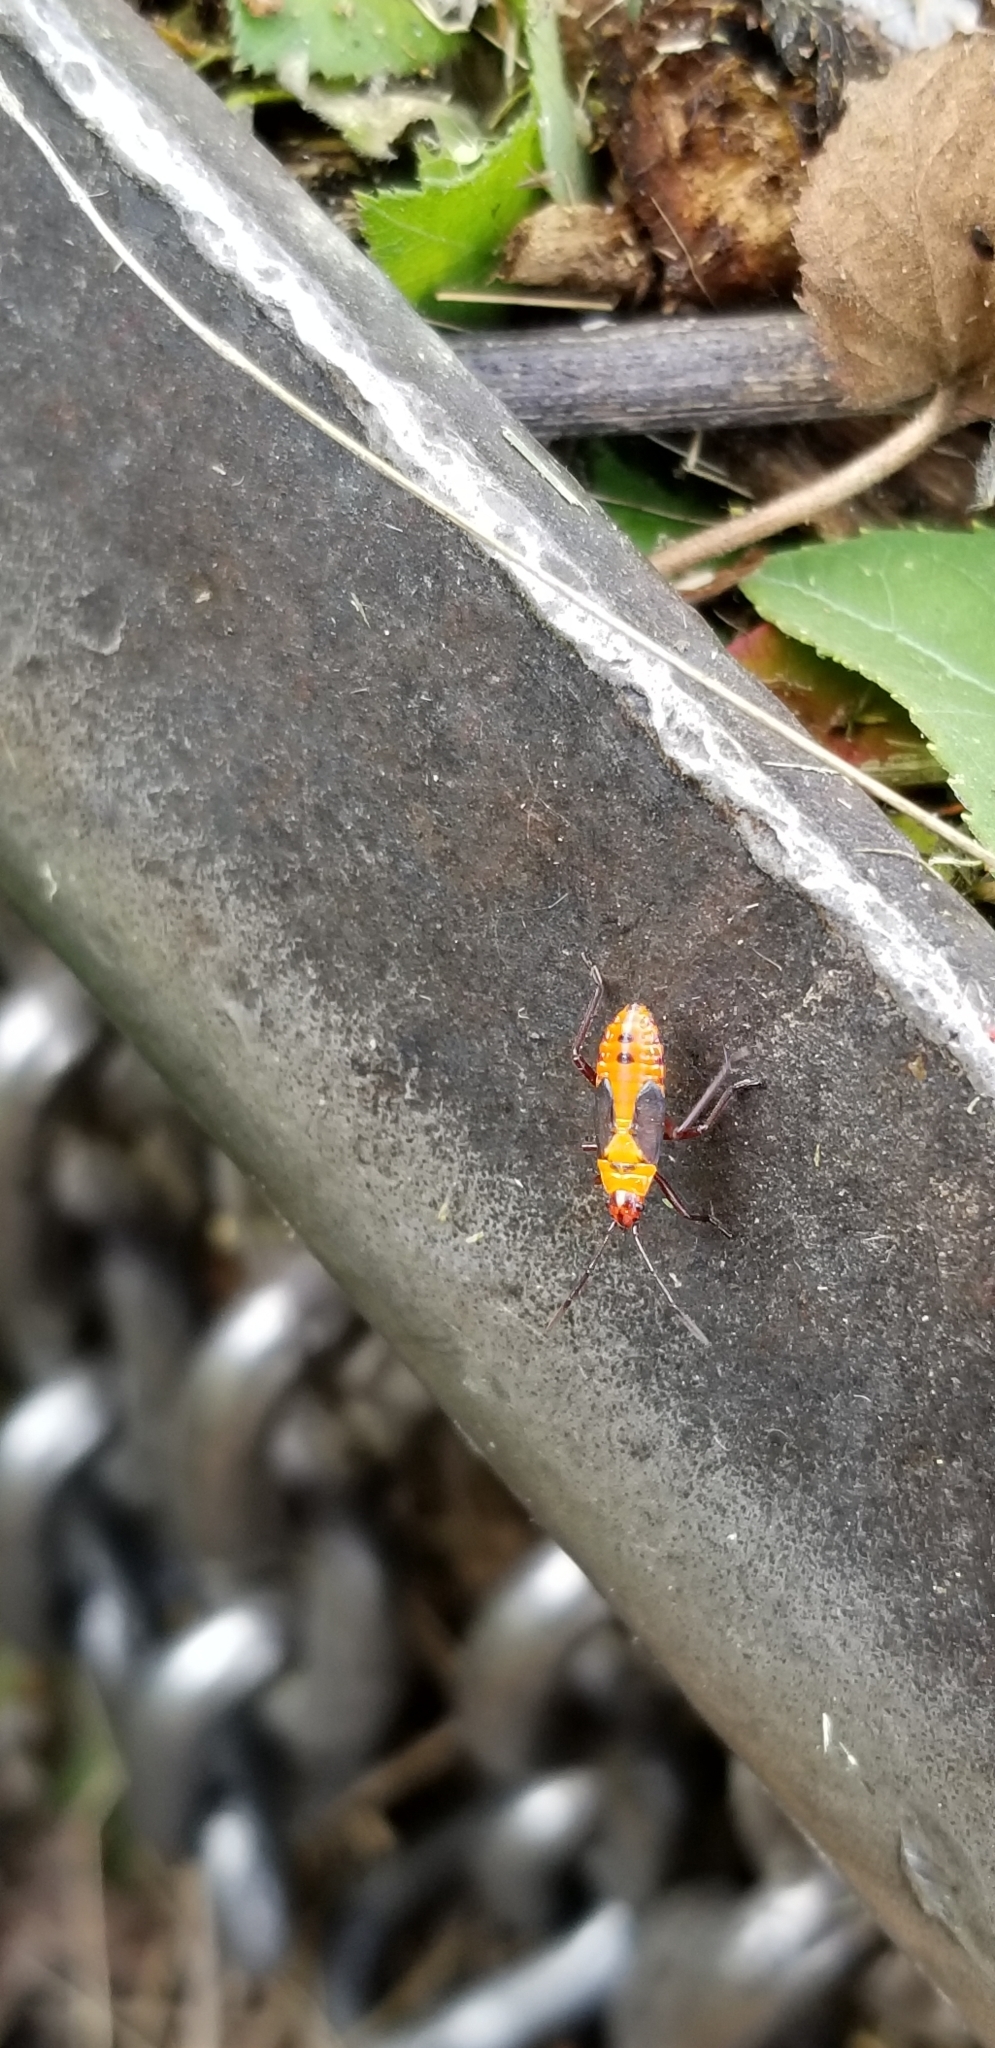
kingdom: Animalia
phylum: Arthropoda
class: Insecta
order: Hemiptera
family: Lygaeidae
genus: Oncopeltus
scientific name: Oncopeltus fasciatus
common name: Large milkweed bug
